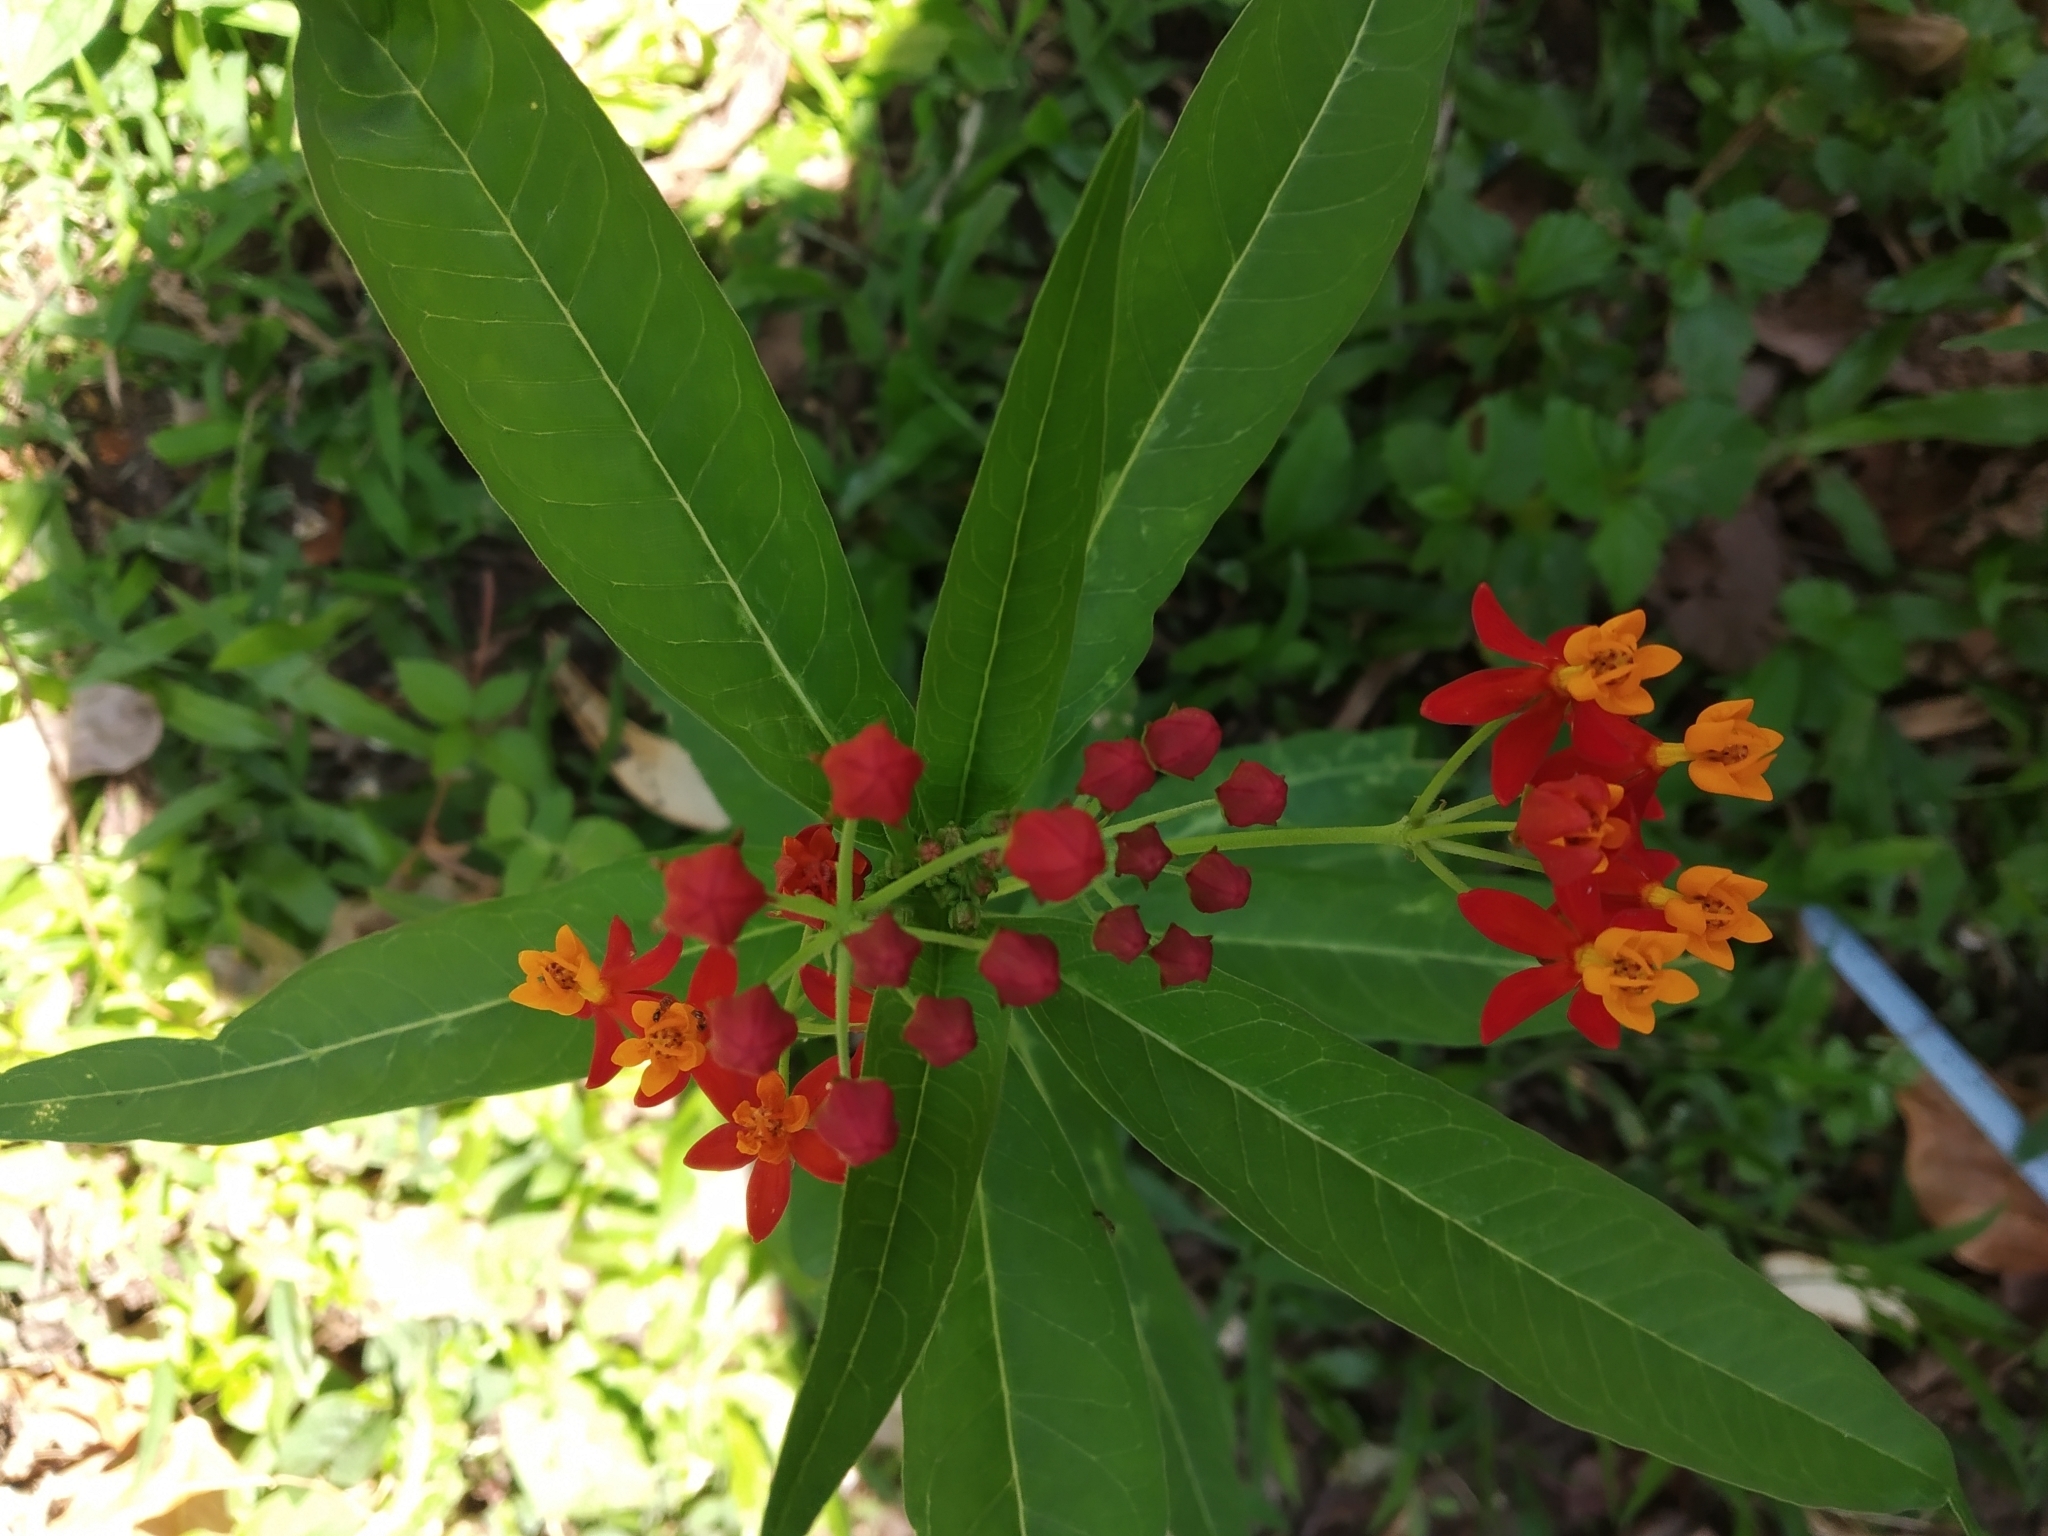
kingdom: Plantae
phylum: Tracheophyta
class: Magnoliopsida
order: Gentianales
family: Apocynaceae
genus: Asclepias
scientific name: Asclepias curassavica
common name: Bloodflower
